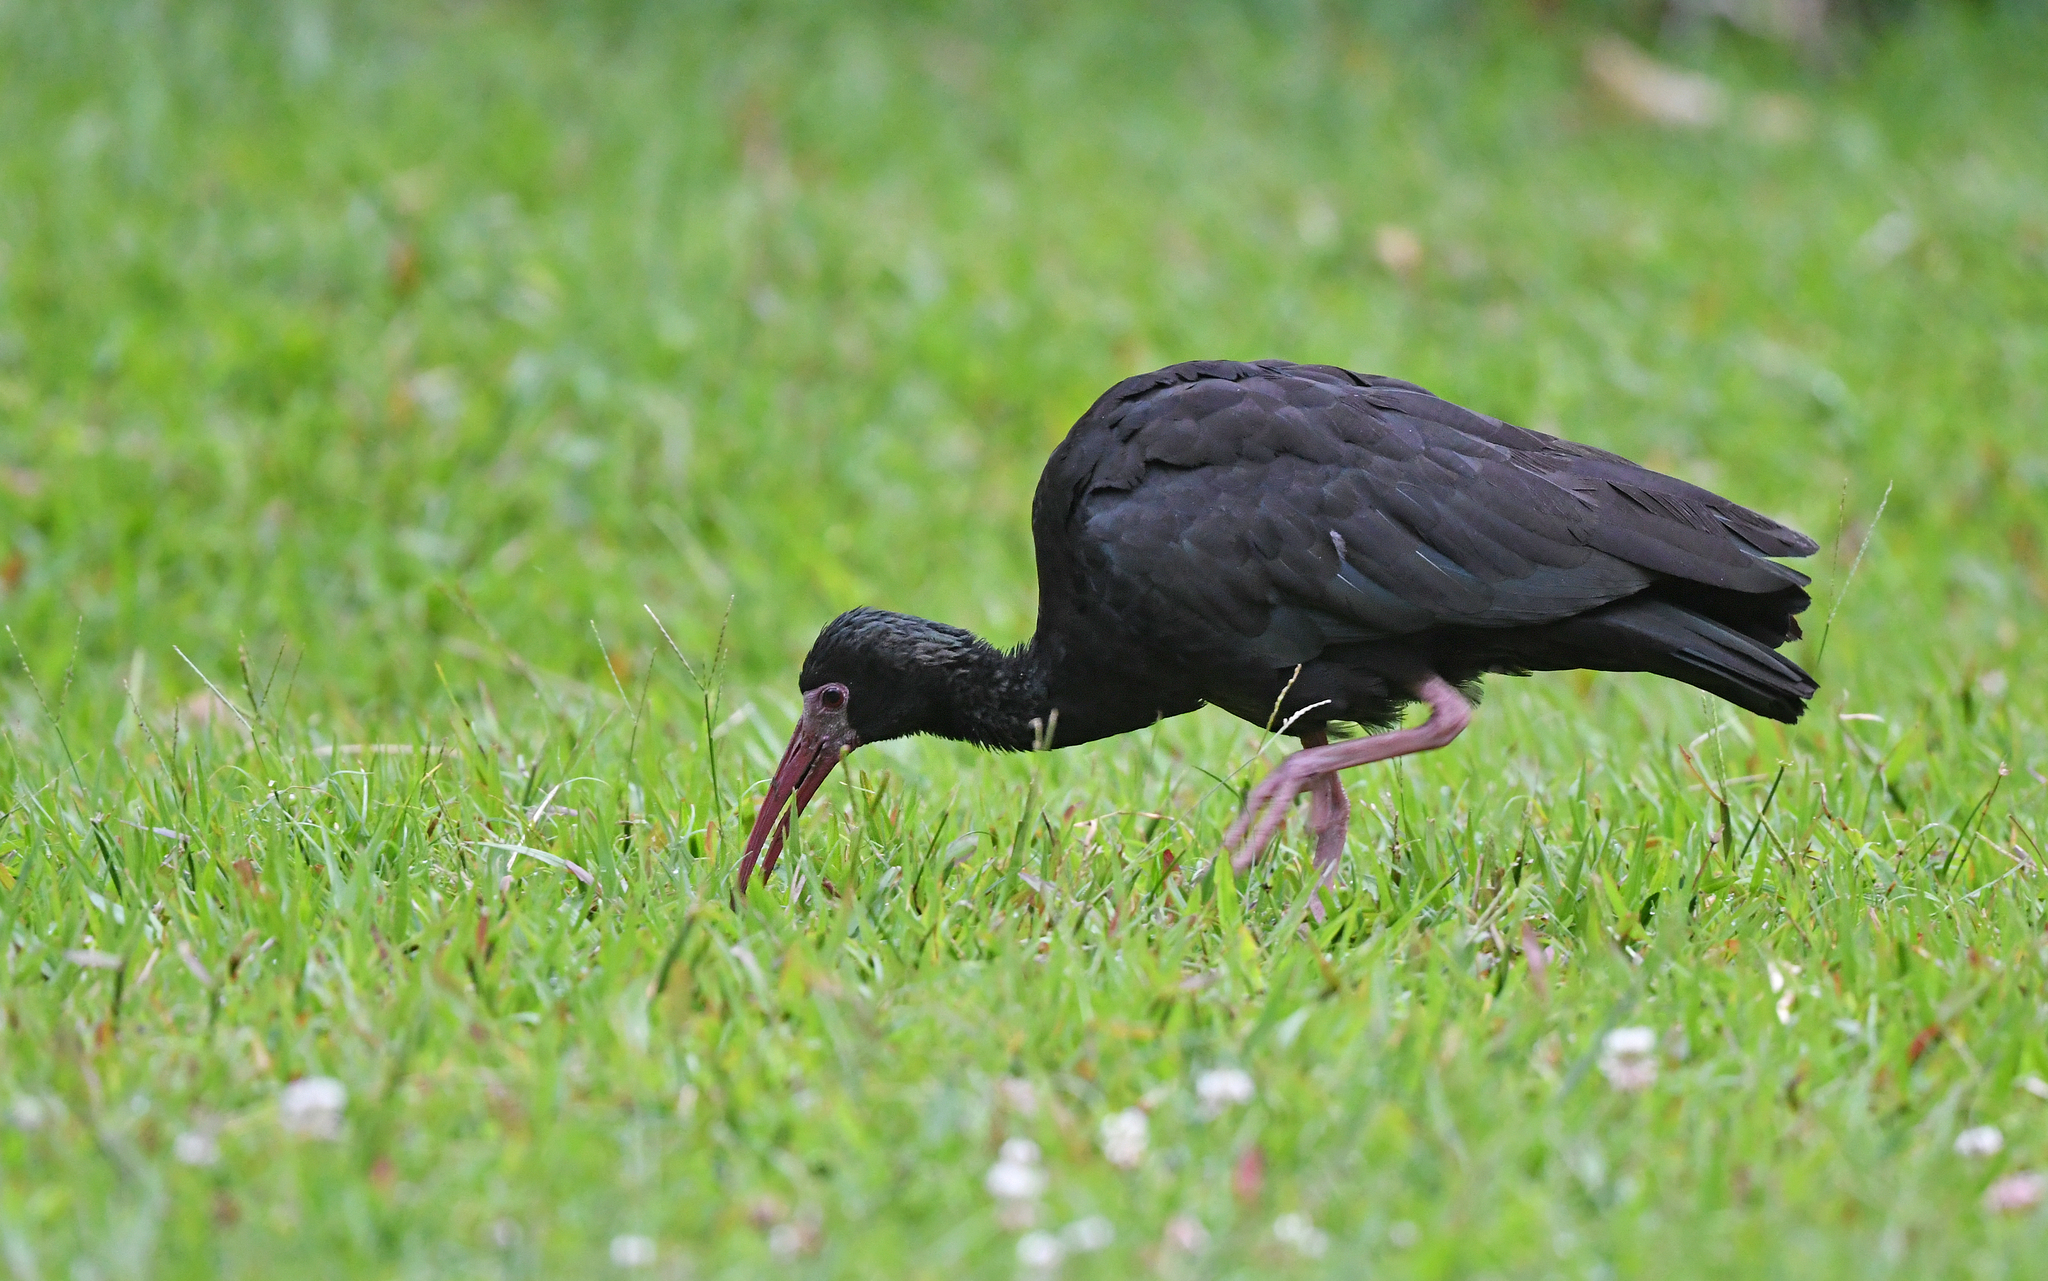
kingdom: Animalia
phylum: Chordata
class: Aves
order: Pelecaniformes
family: Threskiornithidae
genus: Phimosus
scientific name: Phimosus infuscatus
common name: Bare-faced ibis
